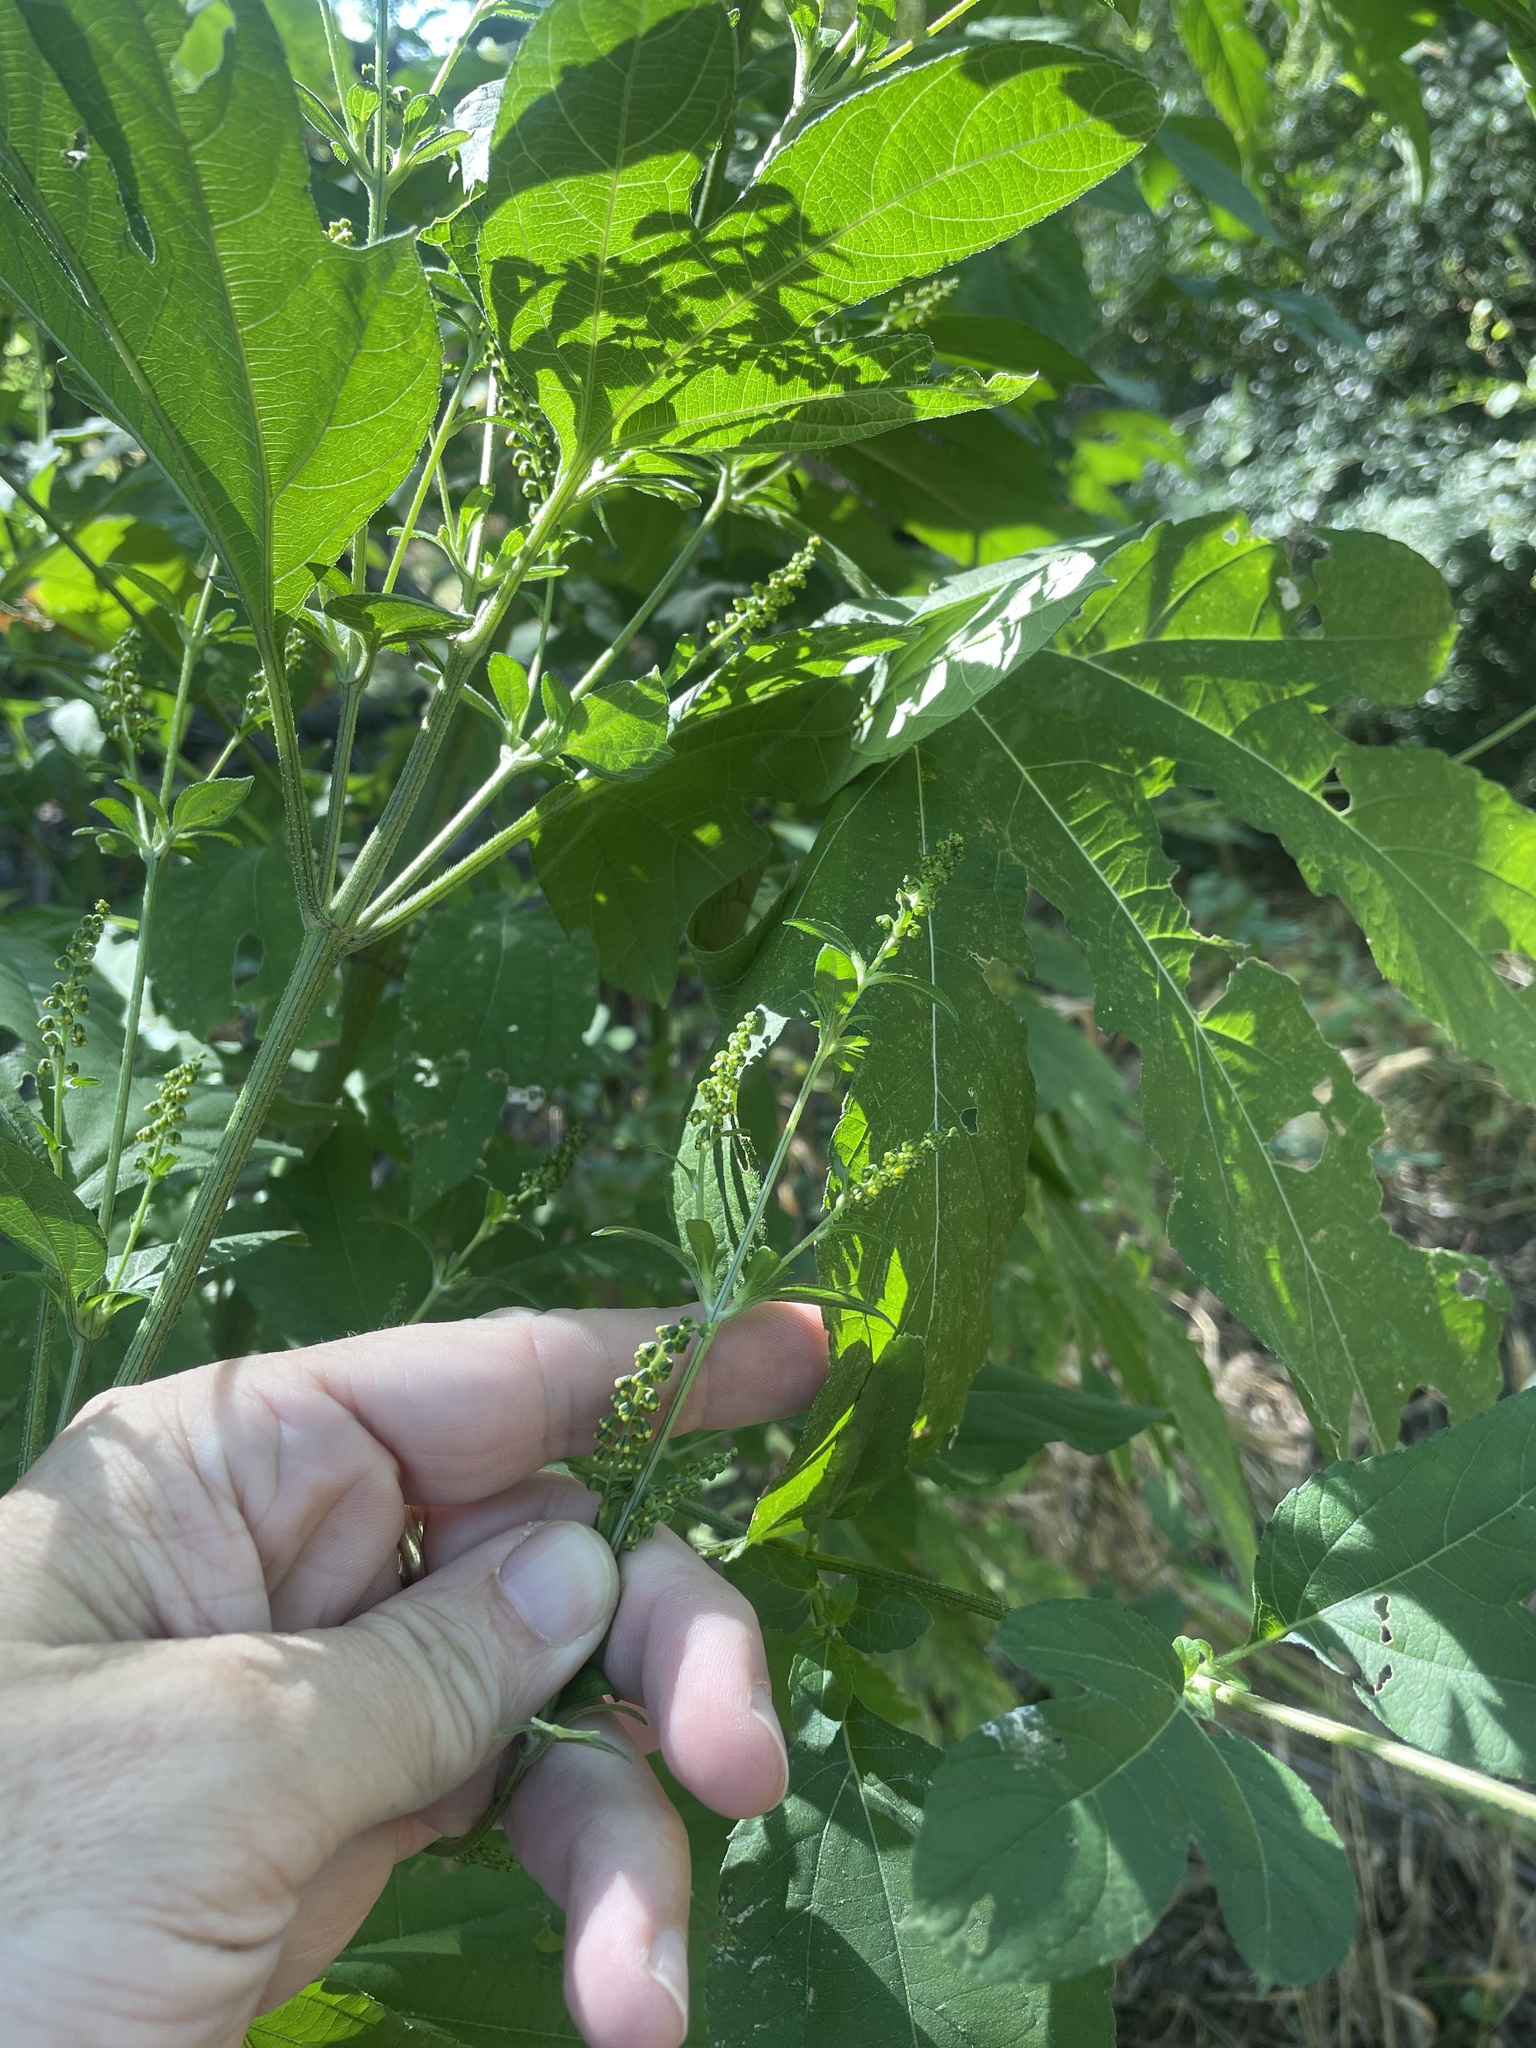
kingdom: Plantae
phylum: Tracheophyta
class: Magnoliopsida
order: Asterales
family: Asteraceae
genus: Ambrosia
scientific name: Ambrosia trifida
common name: Giant ragweed
